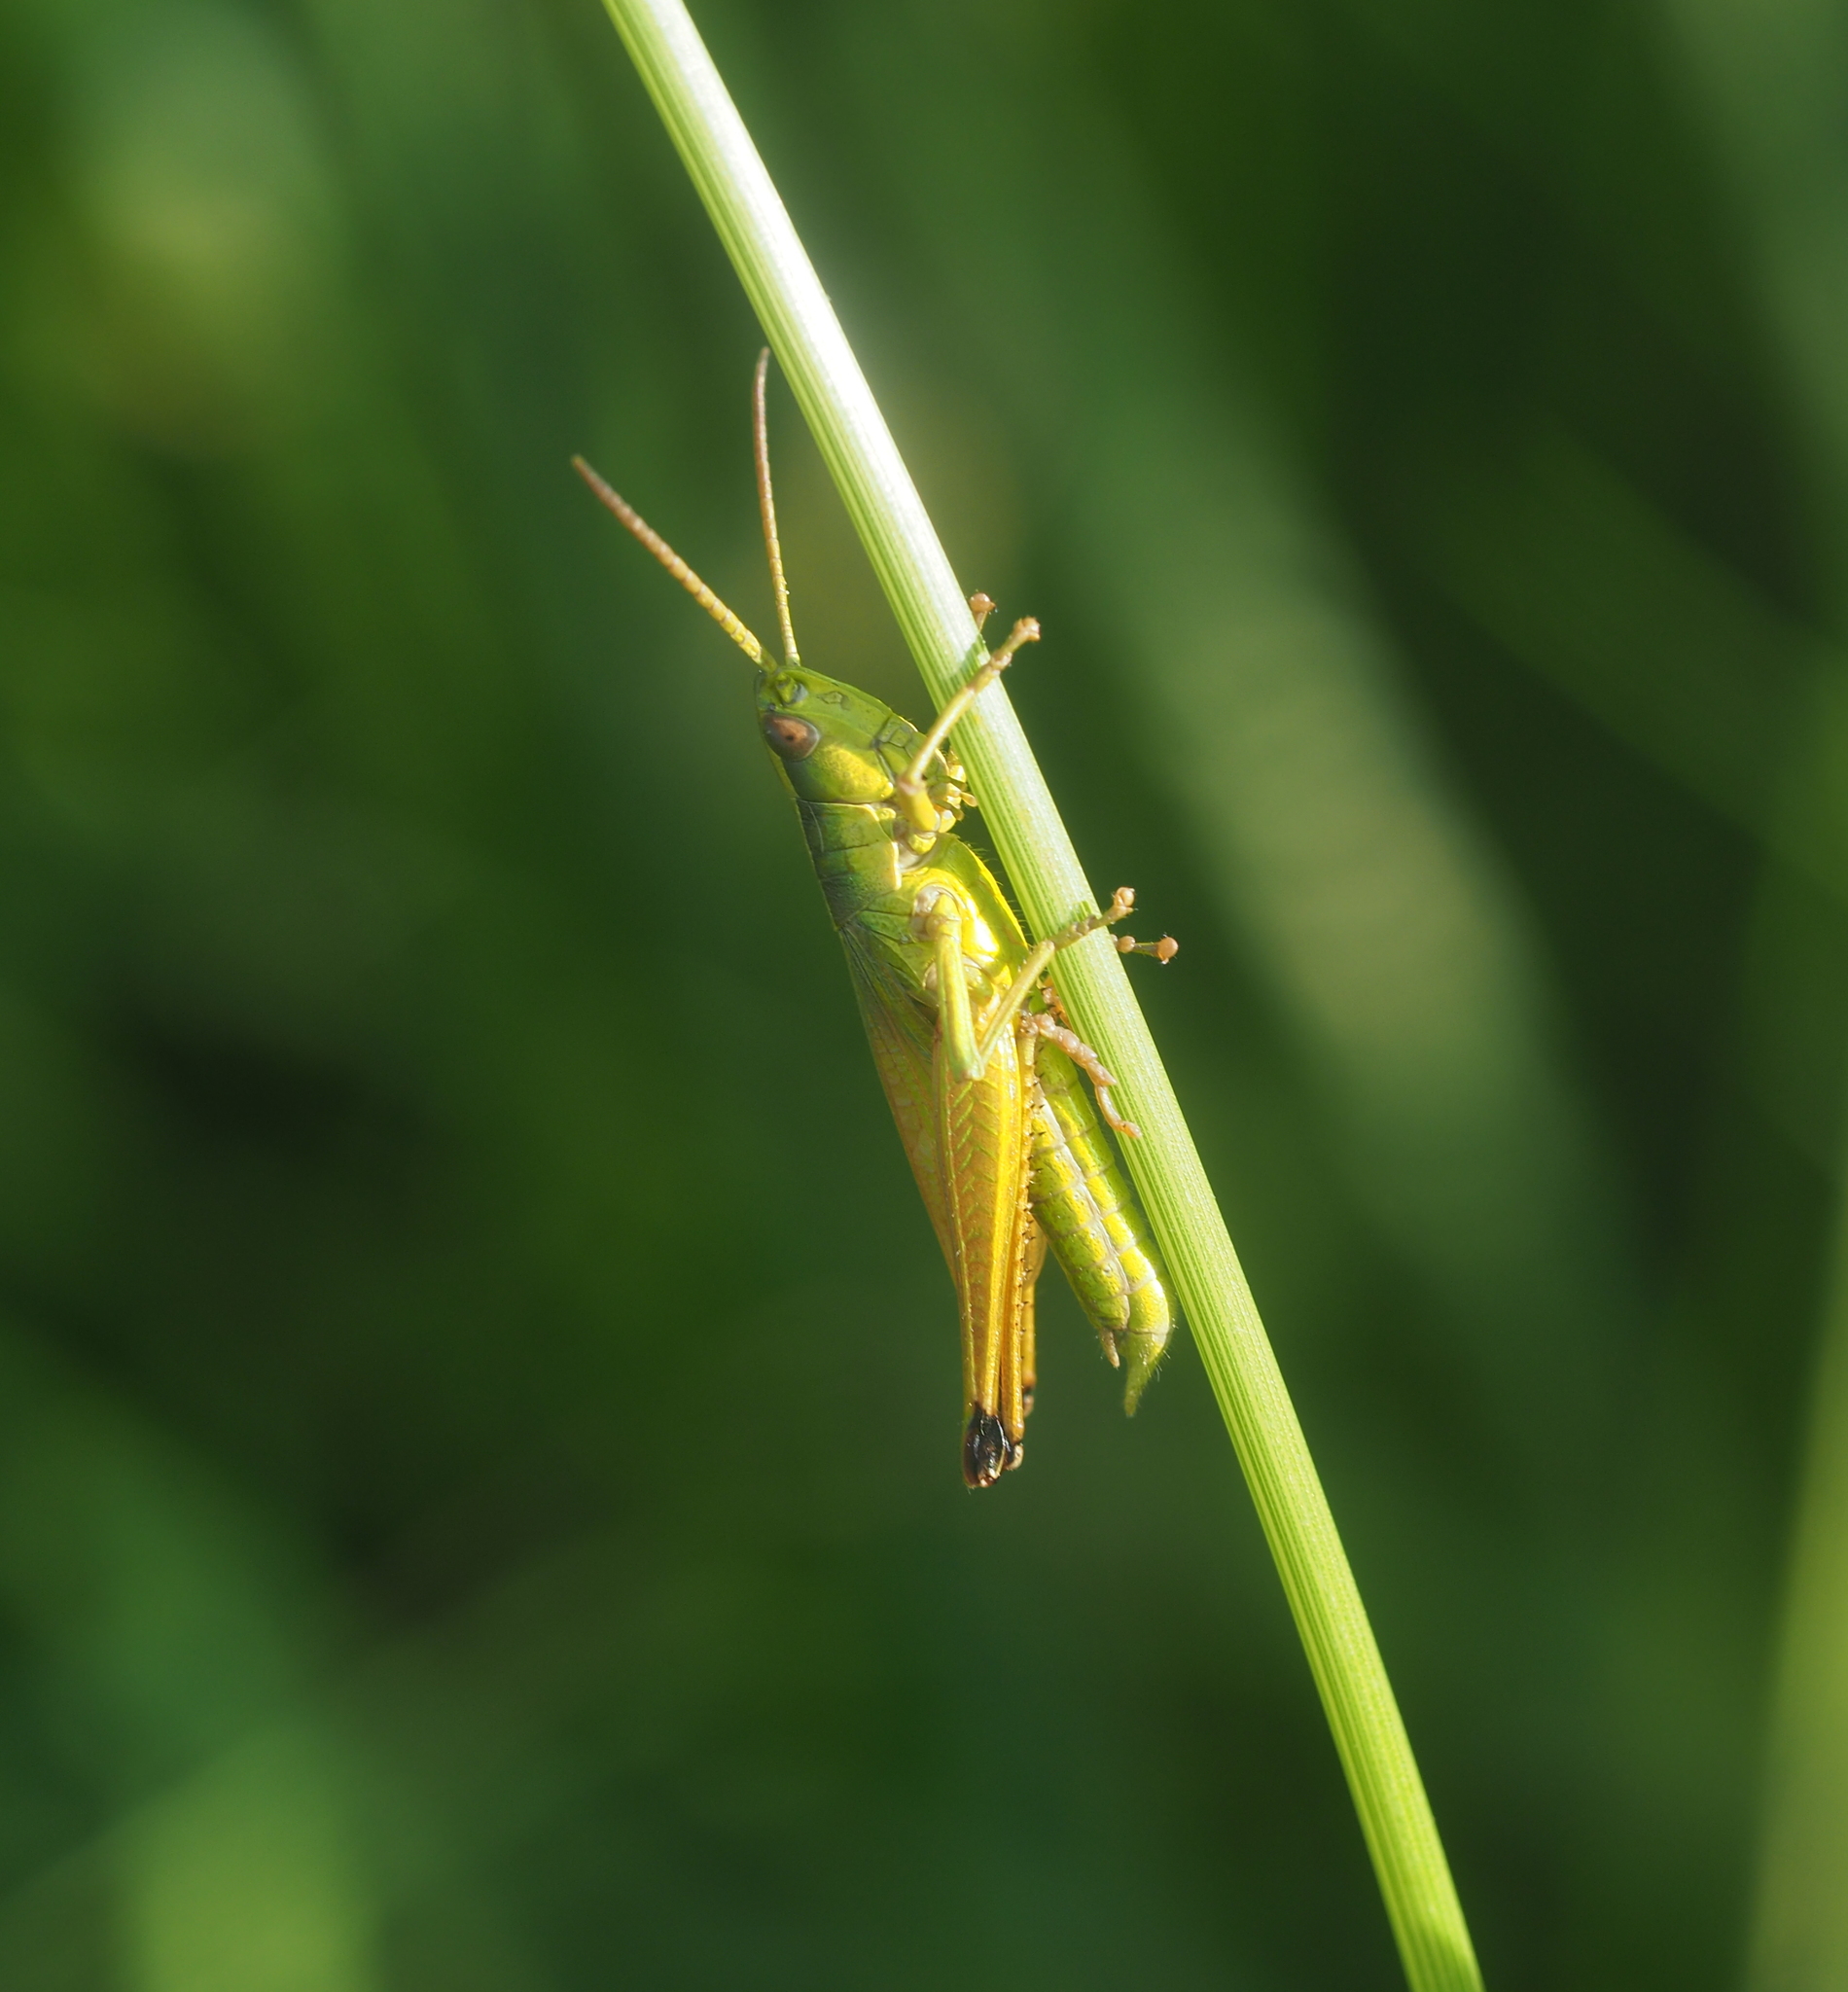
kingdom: Animalia
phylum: Arthropoda
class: Insecta
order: Orthoptera
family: Acrididae
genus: Chrysochraon
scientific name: Chrysochraon dispar
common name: Large gold grasshopper
